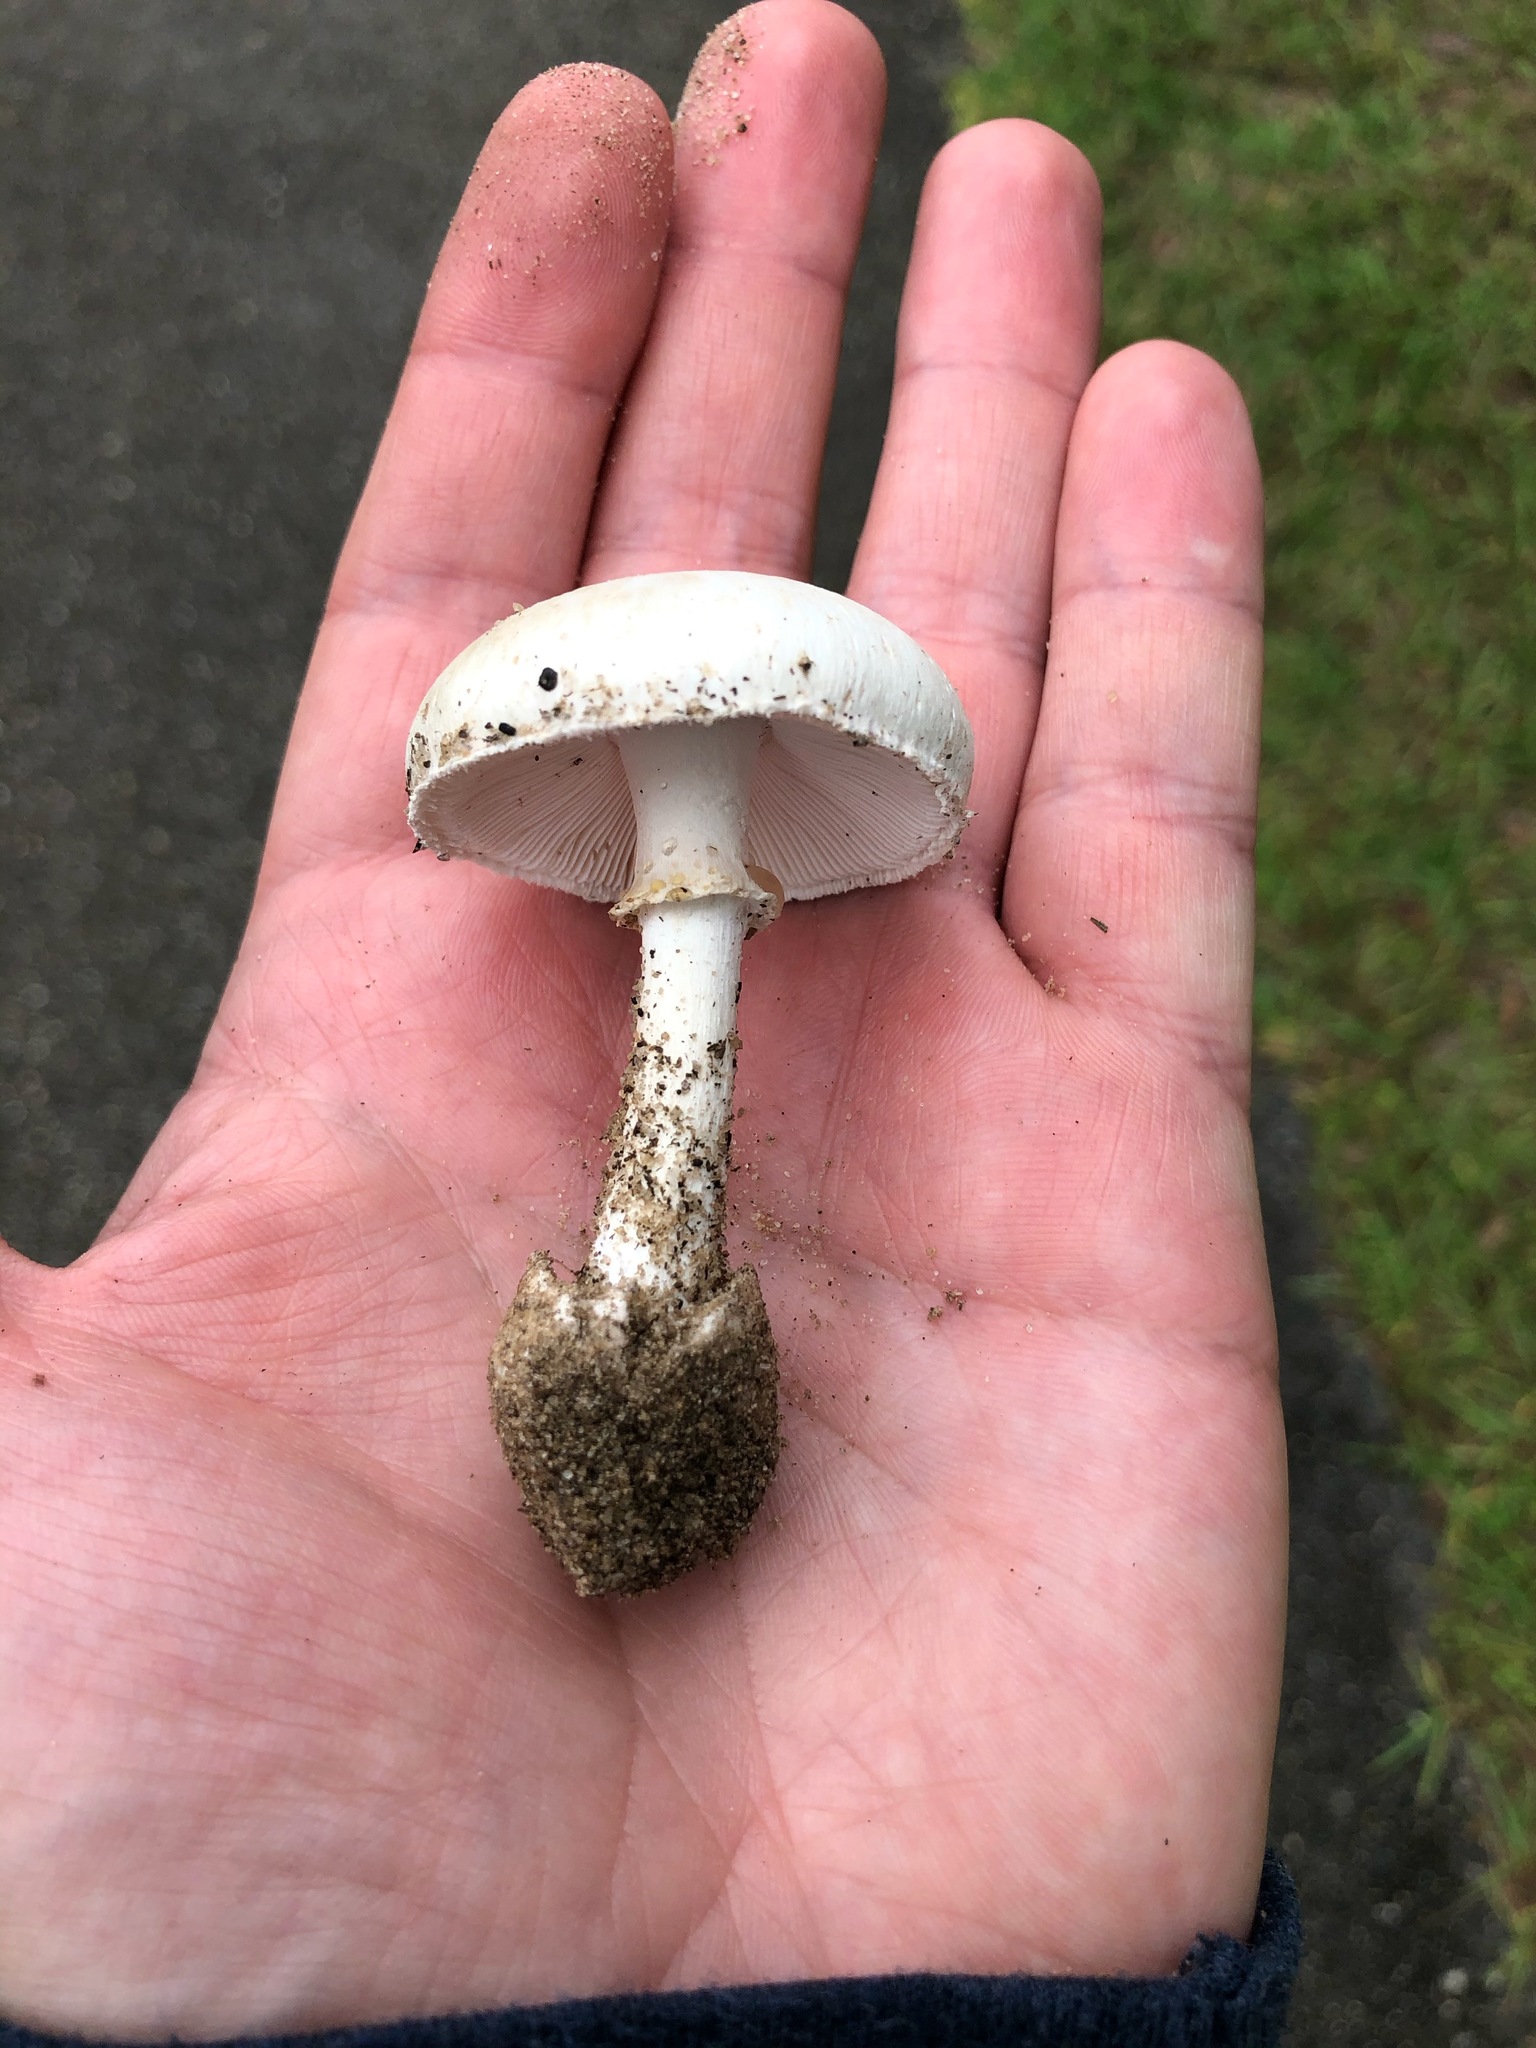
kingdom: Fungi
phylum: Basidiomycota
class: Agaricomycetes
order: Agaricales
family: Agaricaceae
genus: Leucoagaricus
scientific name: Leucoagaricus leucothites
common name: White dapperling
